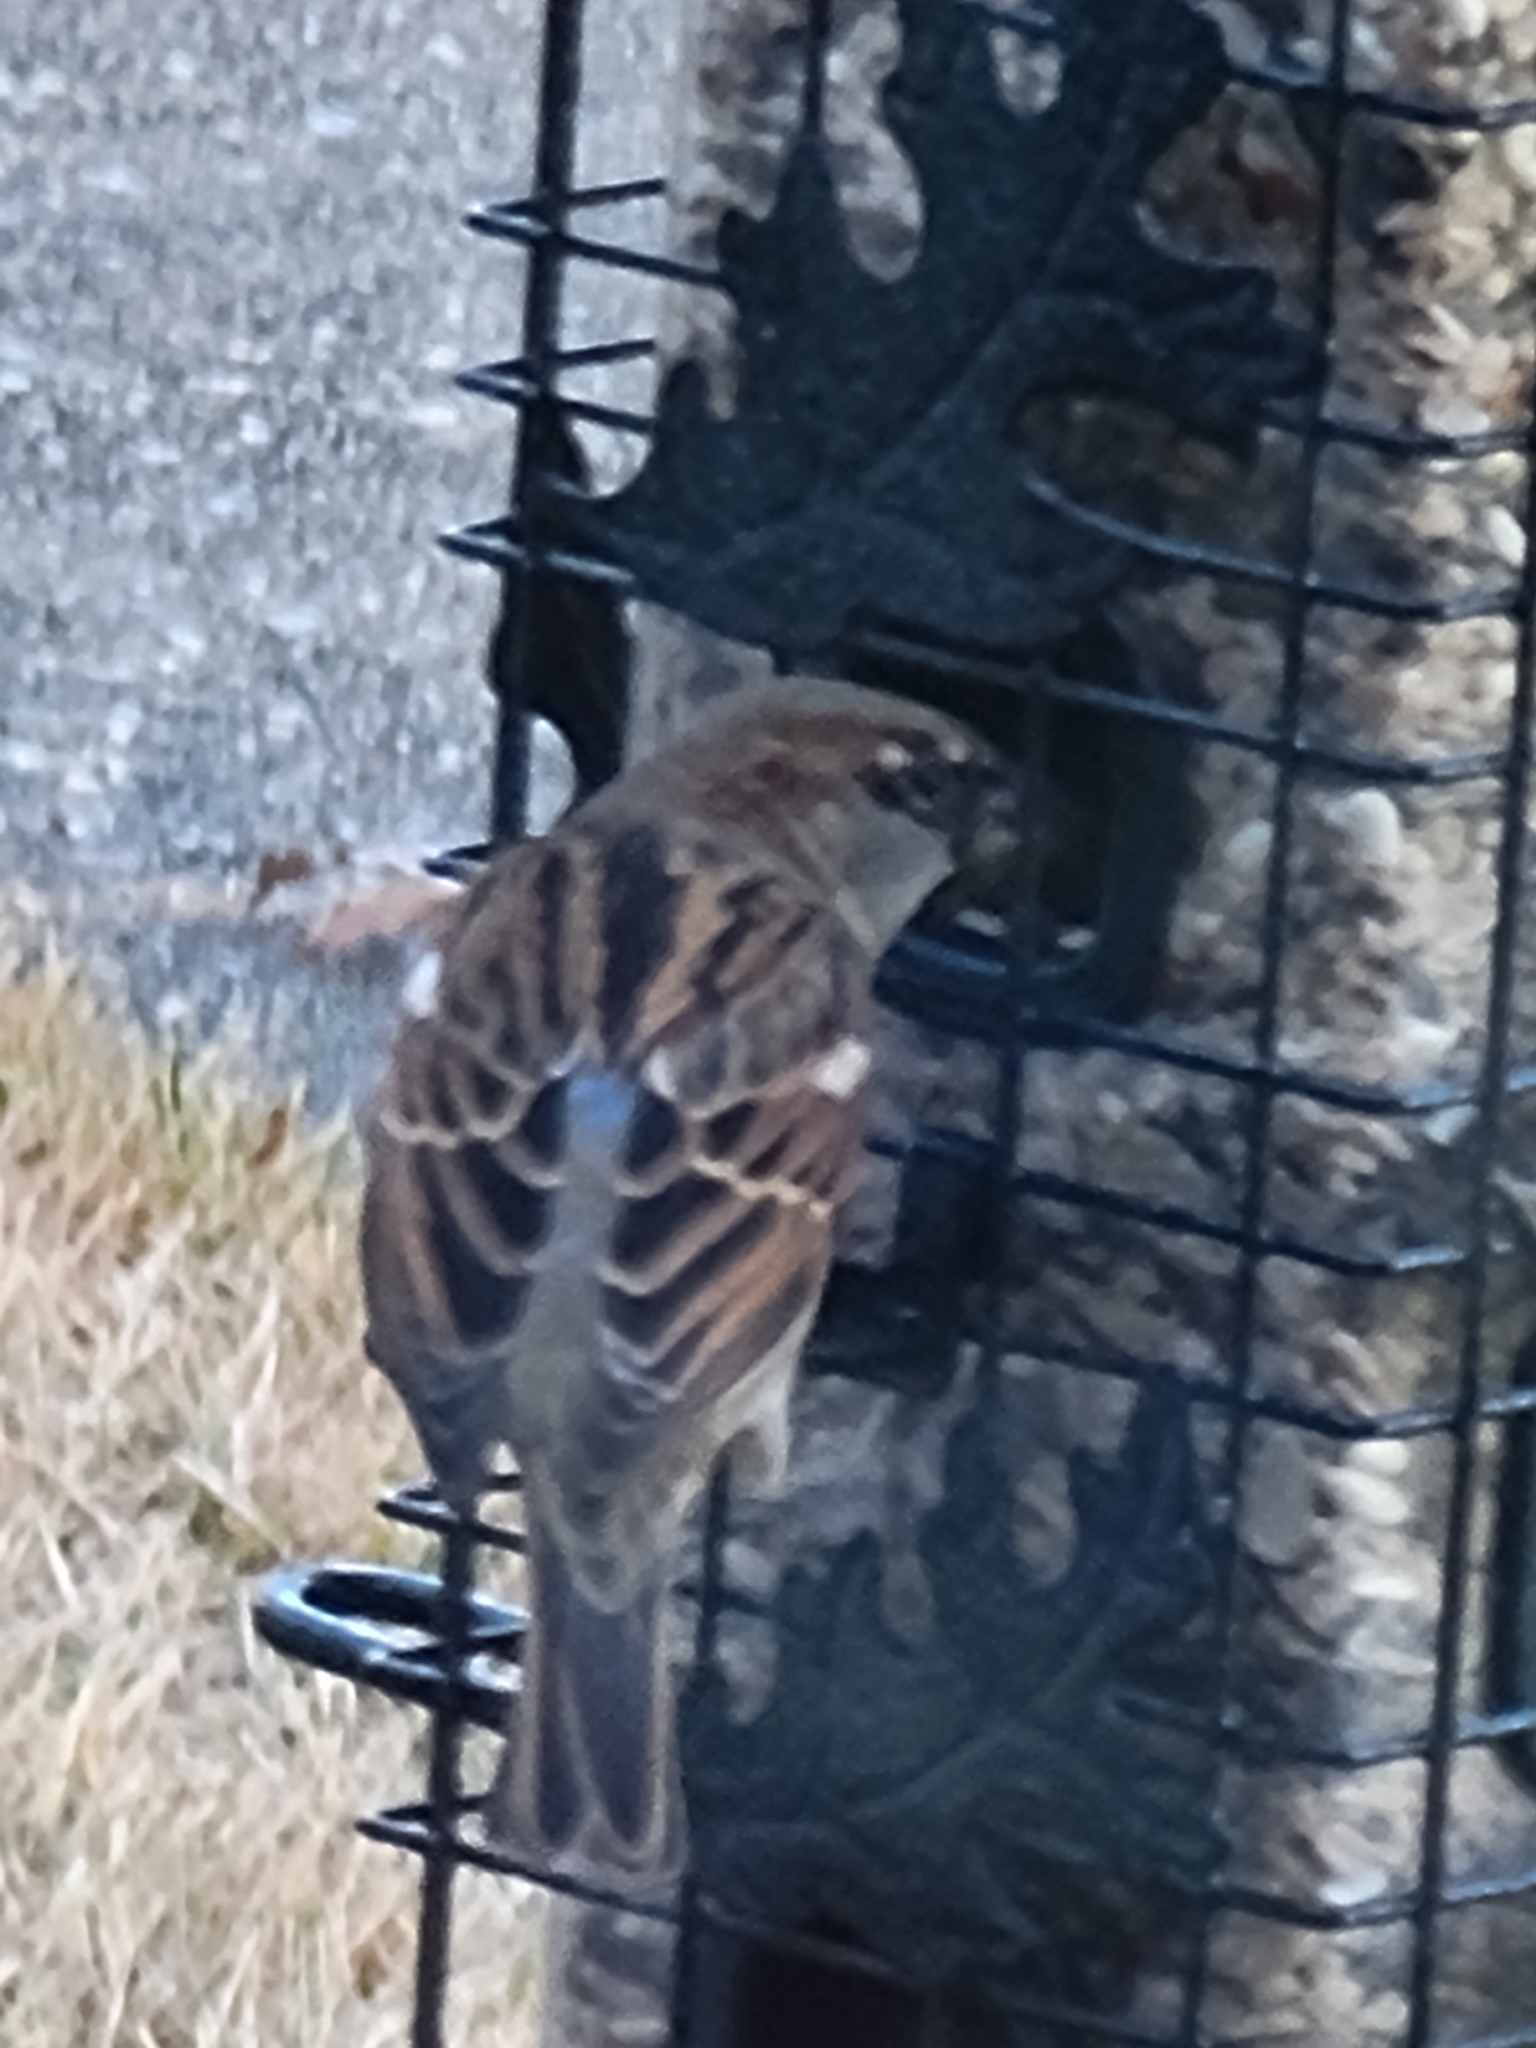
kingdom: Animalia
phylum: Chordata
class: Aves
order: Passeriformes
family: Passeridae
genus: Passer
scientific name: Passer domesticus
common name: House sparrow
